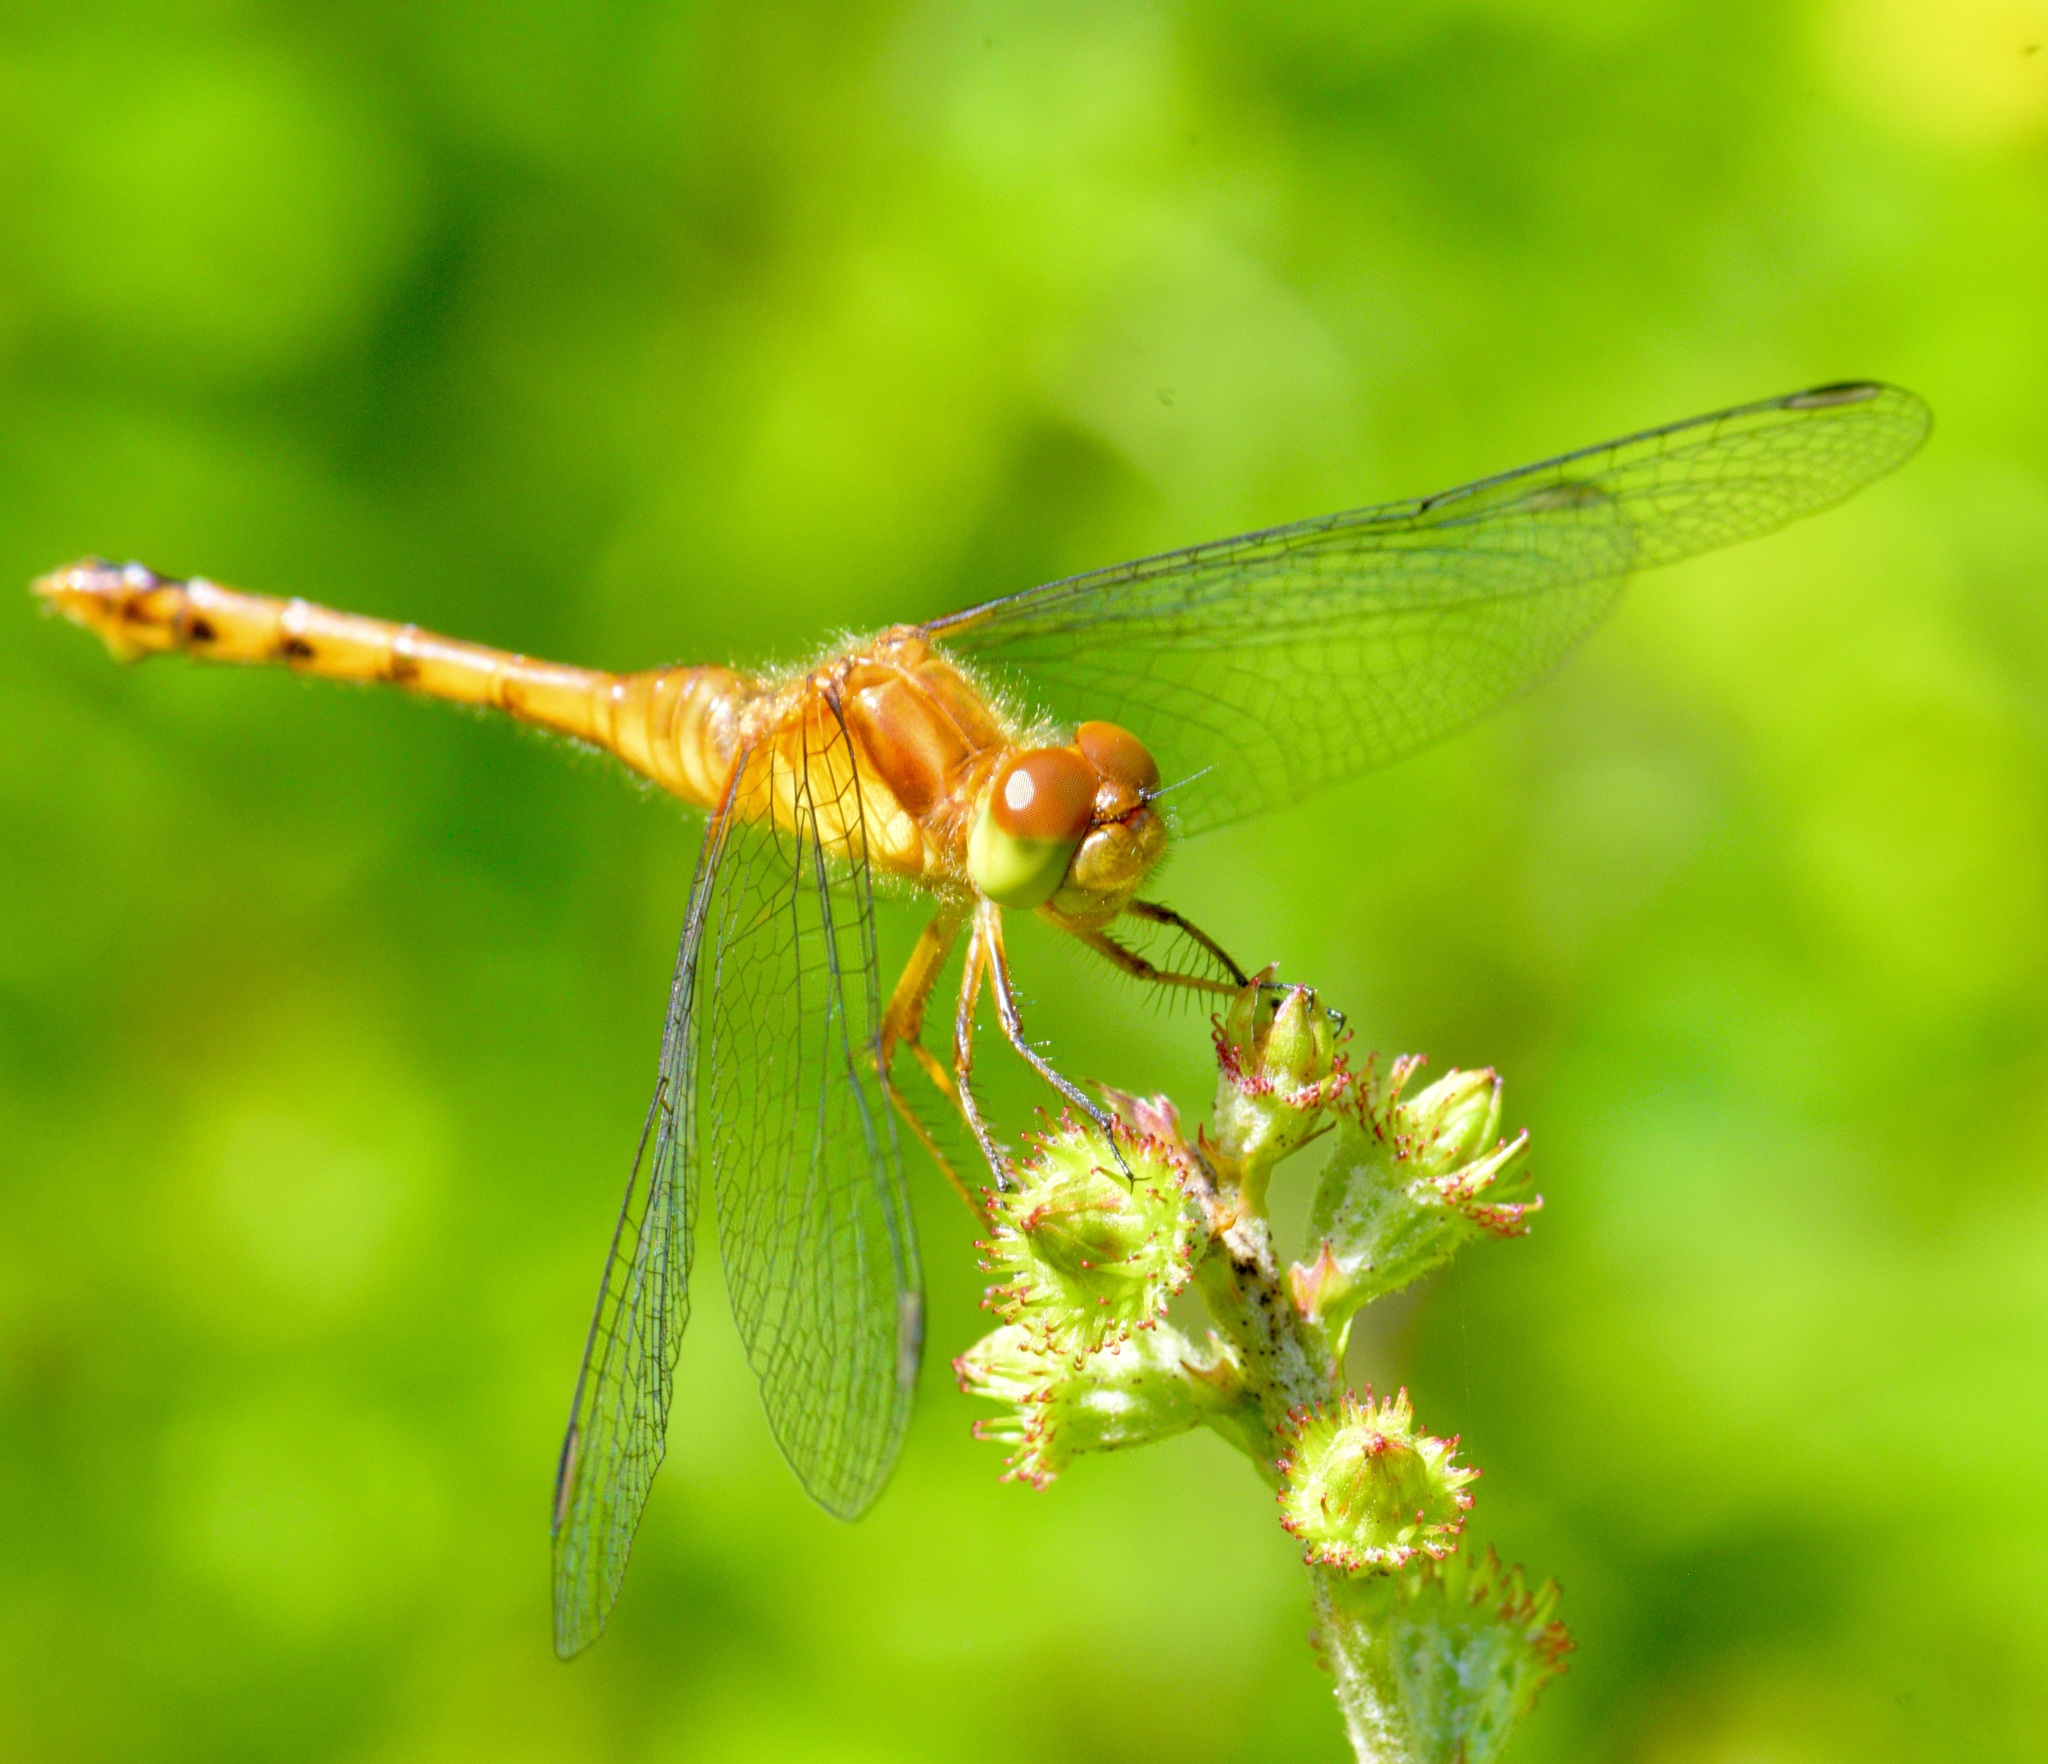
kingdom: Animalia
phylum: Arthropoda
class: Insecta
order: Odonata
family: Libellulidae
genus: Sympetrum
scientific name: Sympetrum vicinum
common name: Autumn meadowhawk
